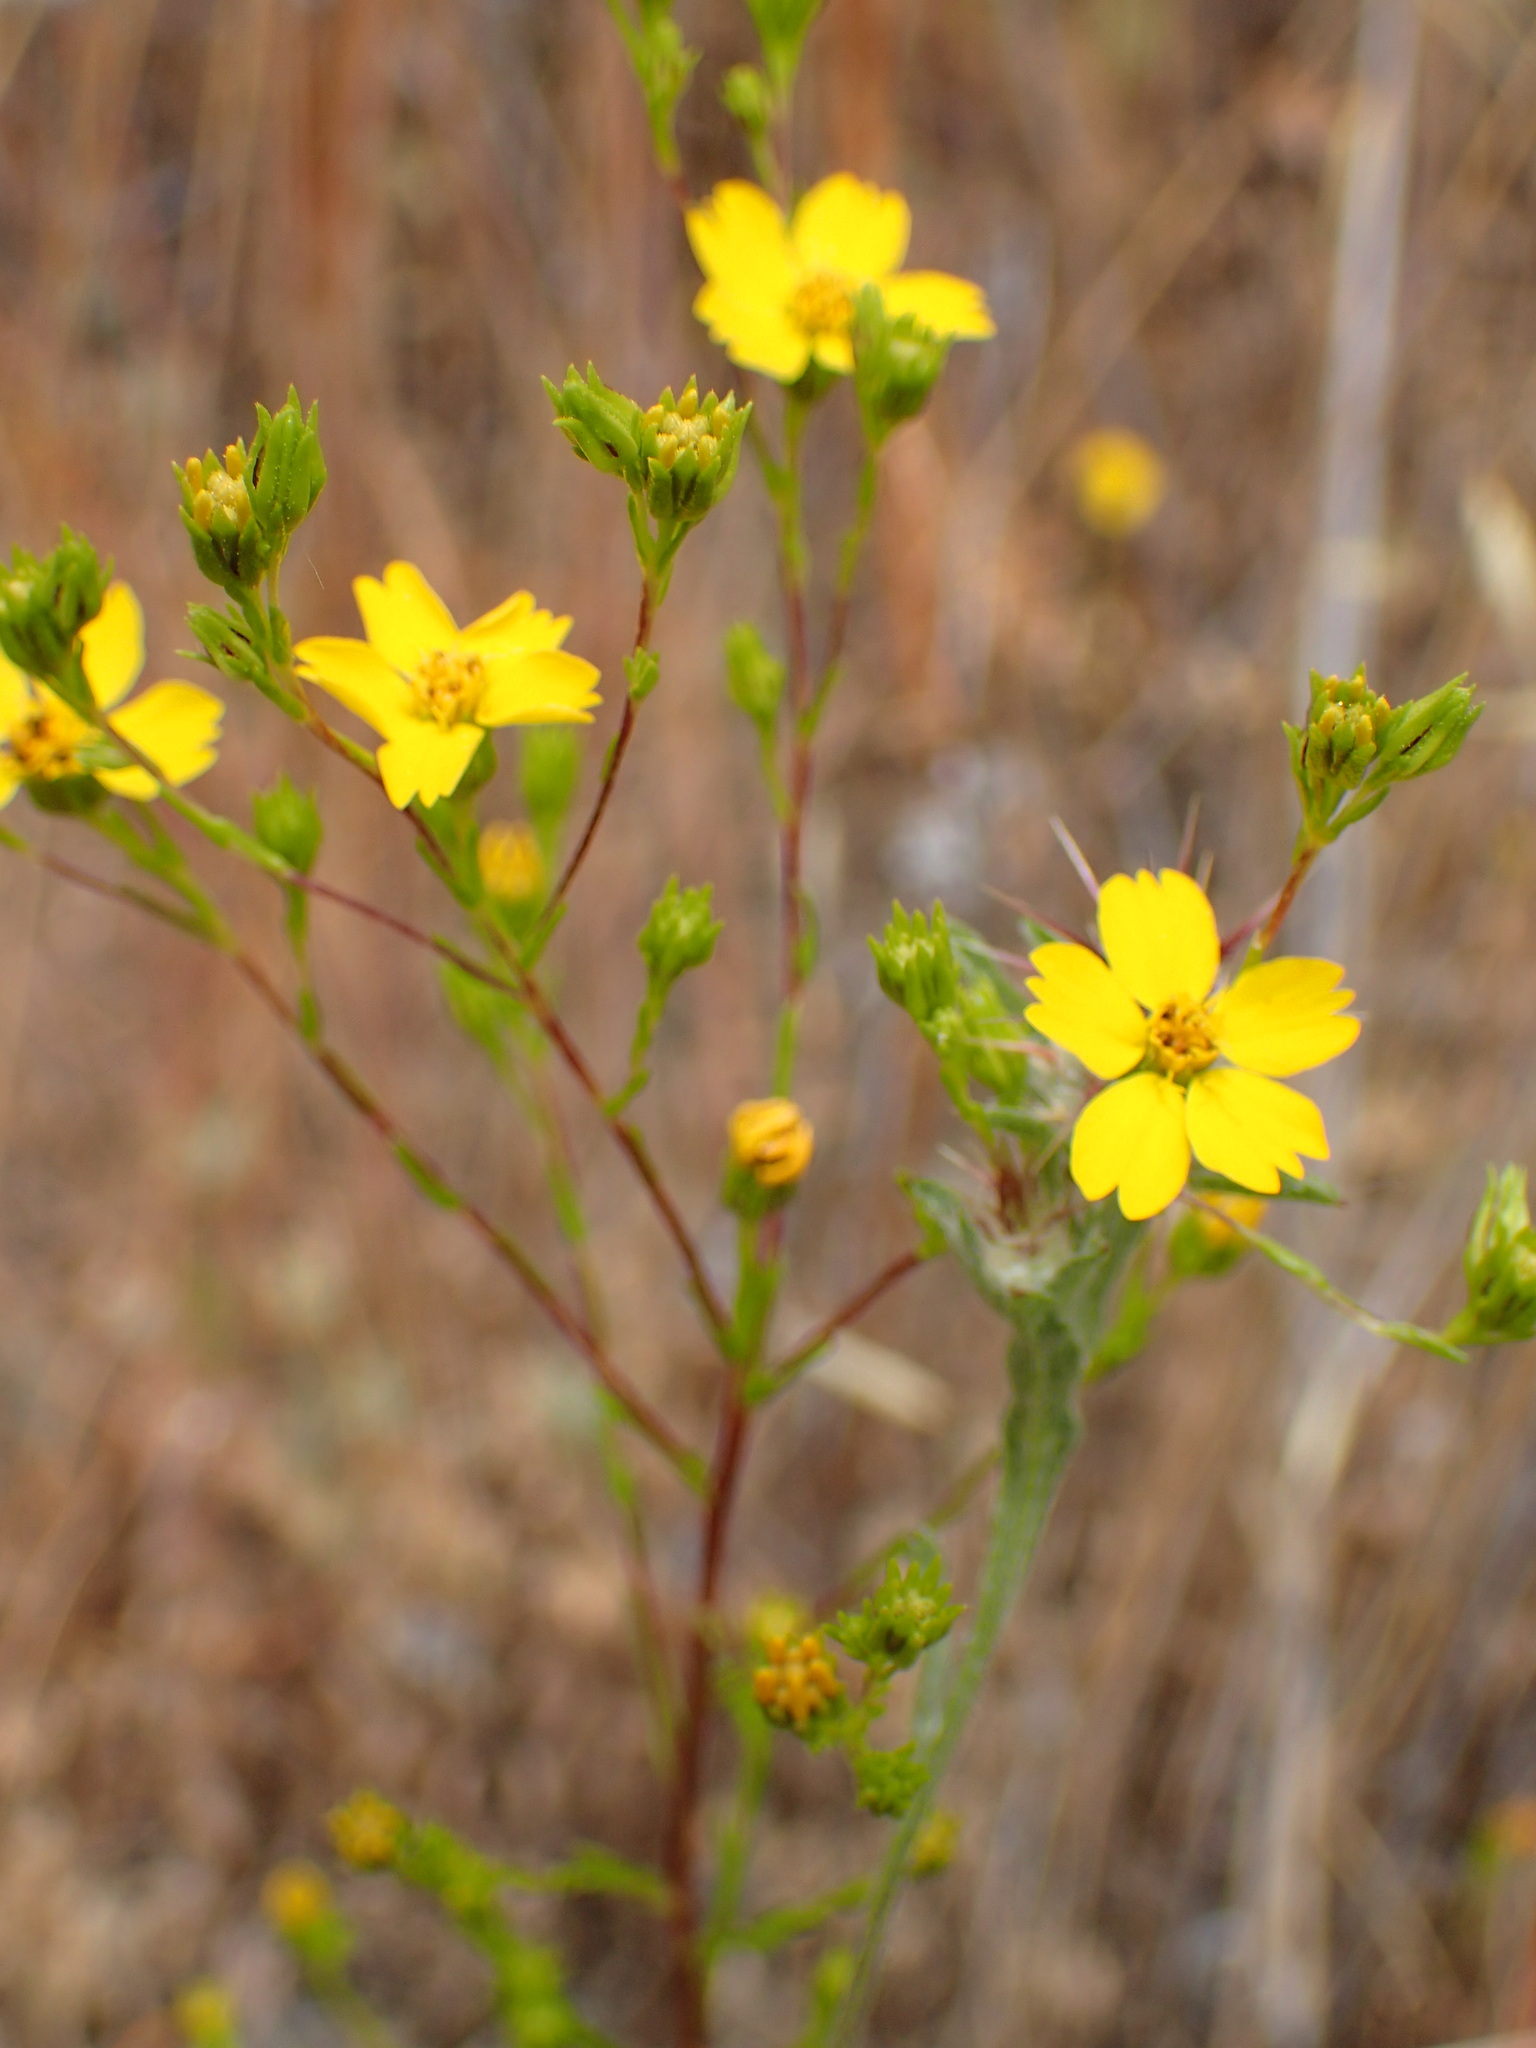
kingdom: Plantae
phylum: Tracheophyta
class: Magnoliopsida
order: Asterales
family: Asteraceae
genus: Deinandra
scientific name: Deinandra fasciculata
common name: Clustered tarweed
